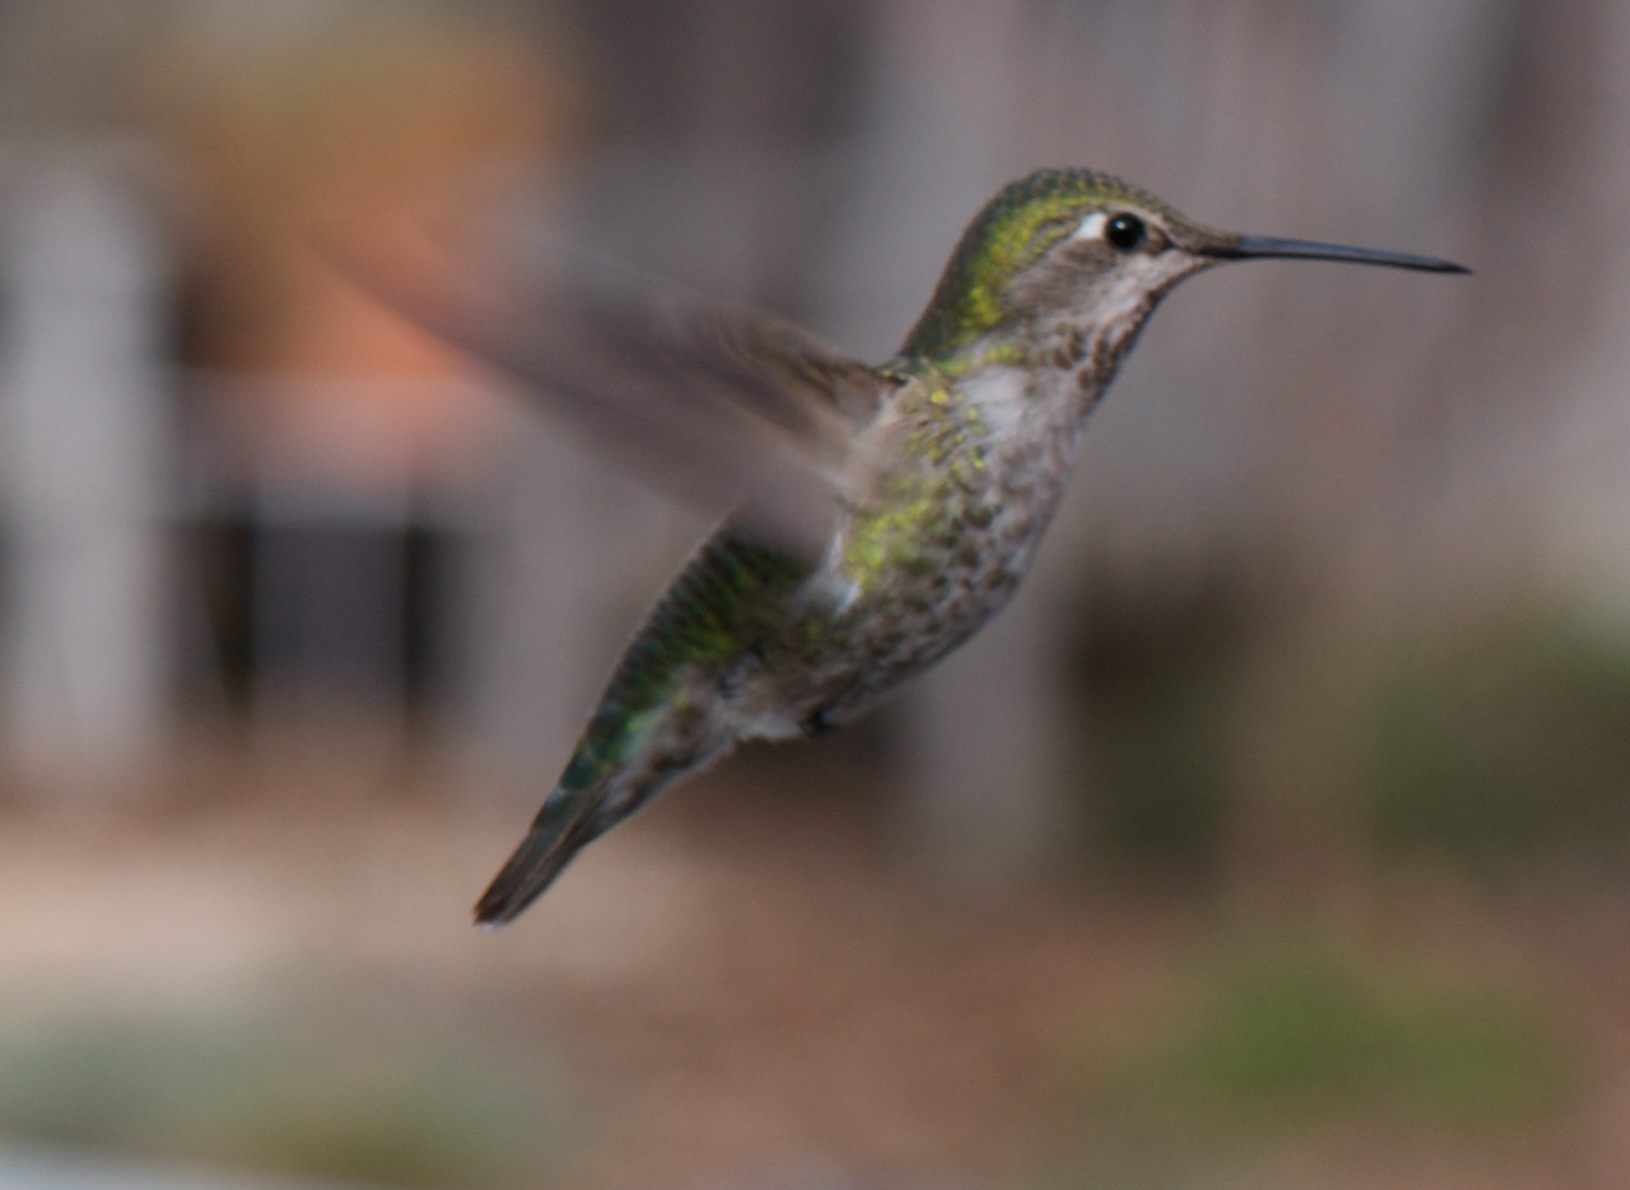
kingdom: Animalia
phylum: Chordata
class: Aves
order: Apodiformes
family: Trochilidae
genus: Calypte
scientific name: Calypte anna
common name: Anna's hummingbird
